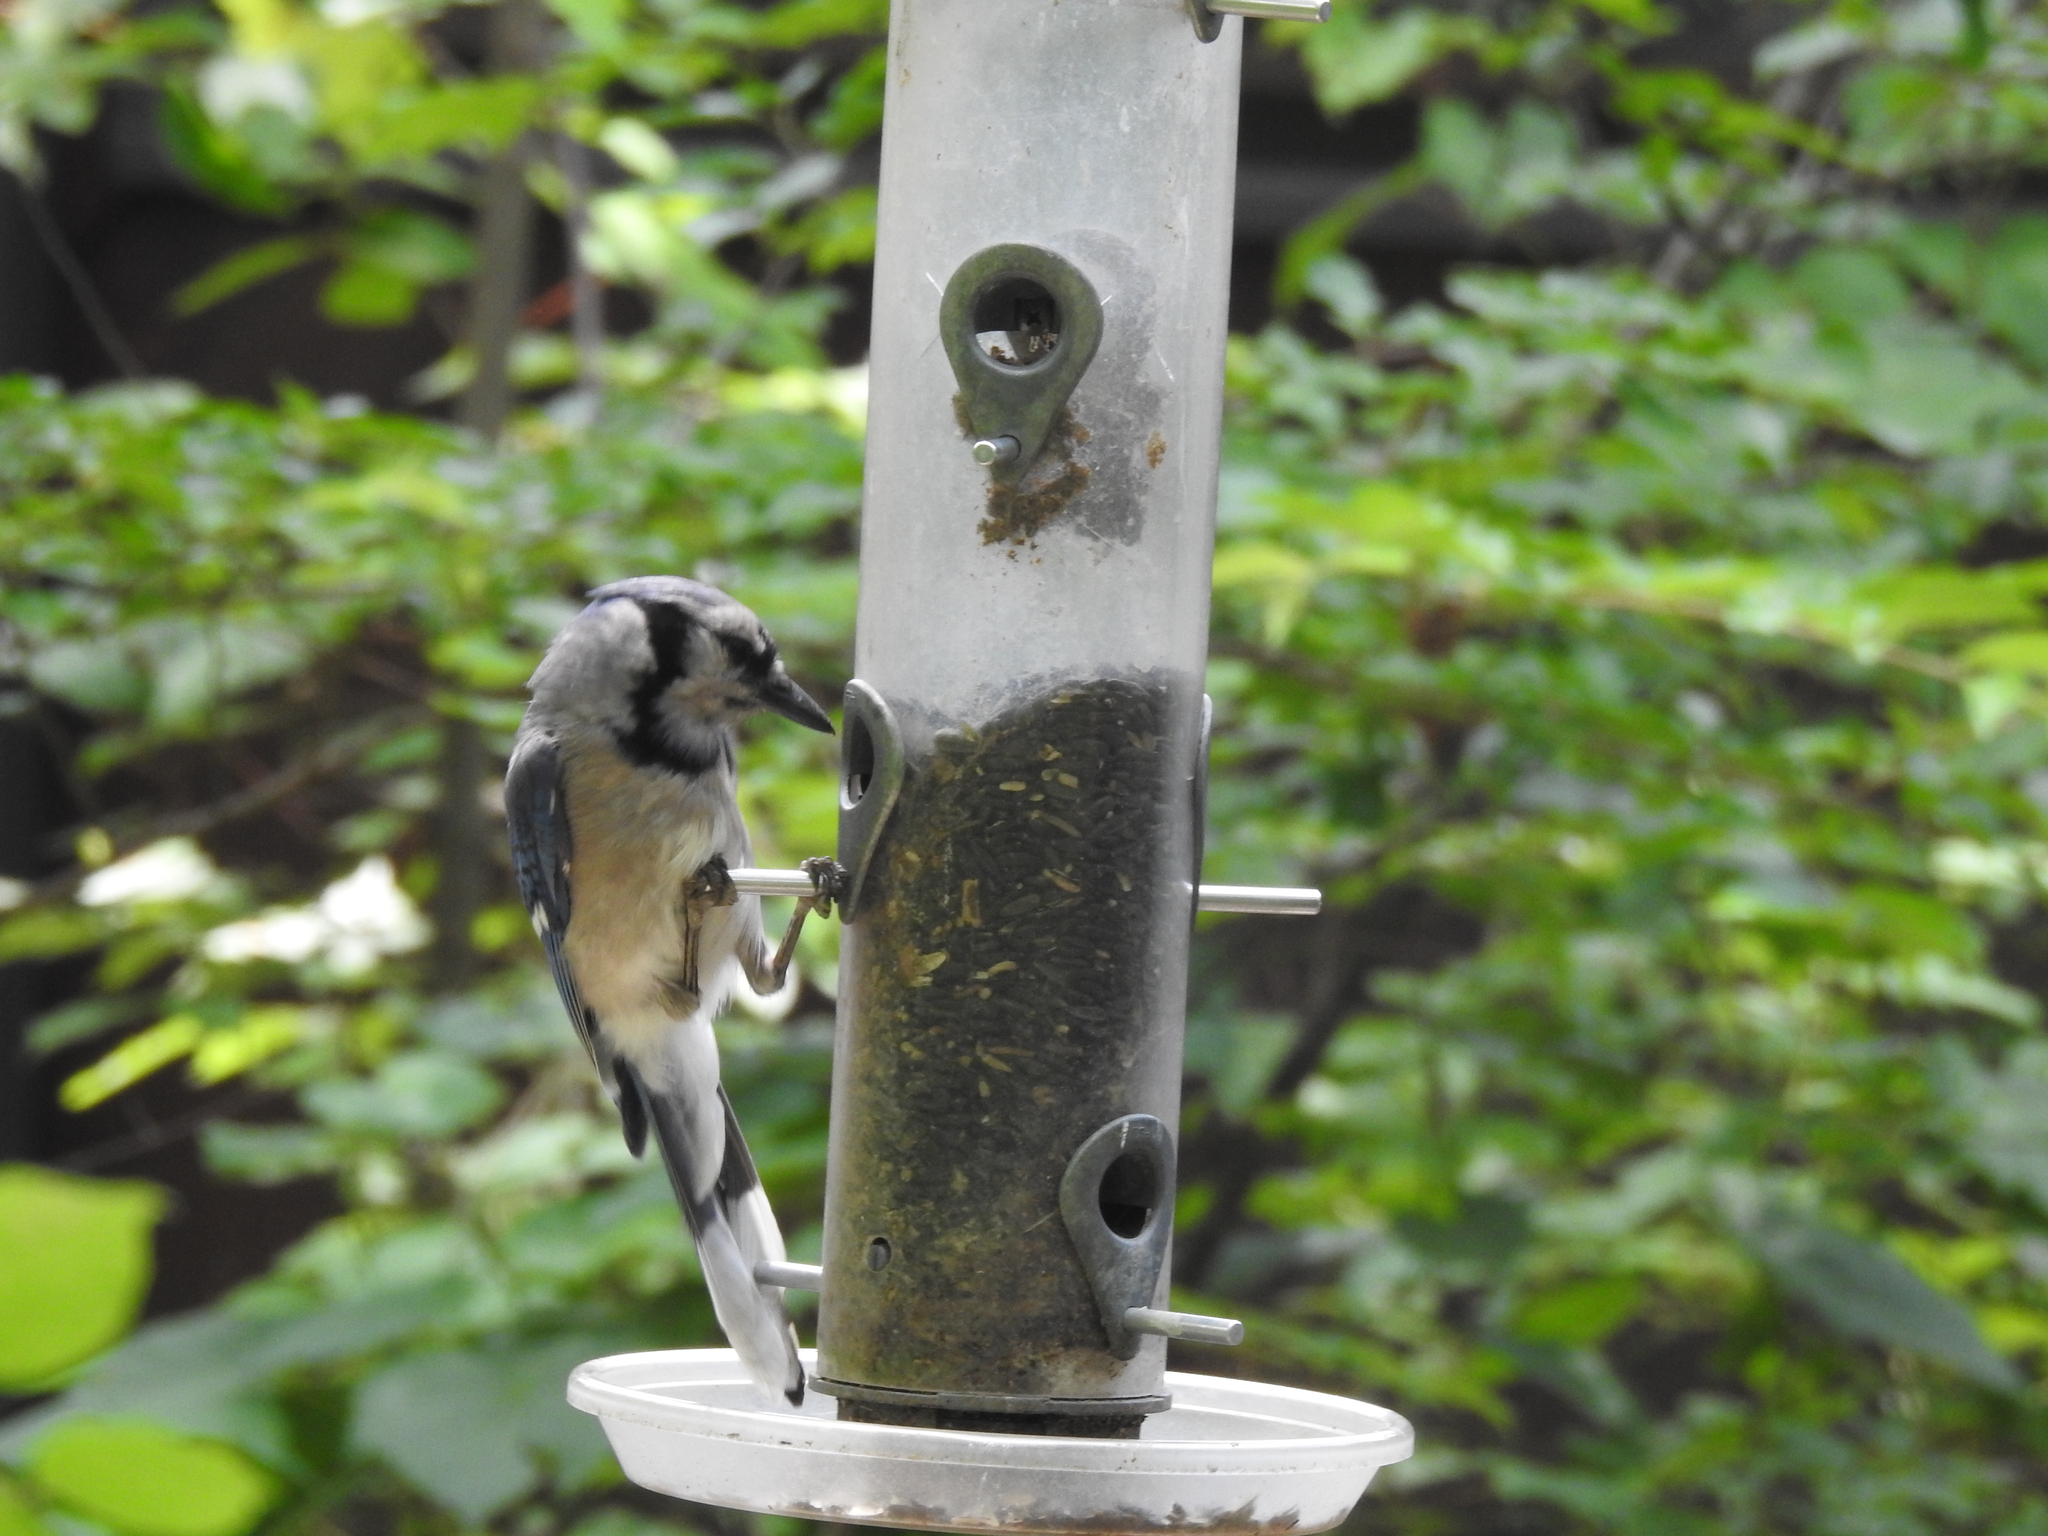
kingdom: Animalia
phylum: Chordata
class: Aves
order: Passeriformes
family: Corvidae
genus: Cyanocitta
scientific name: Cyanocitta cristata
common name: Blue jay
